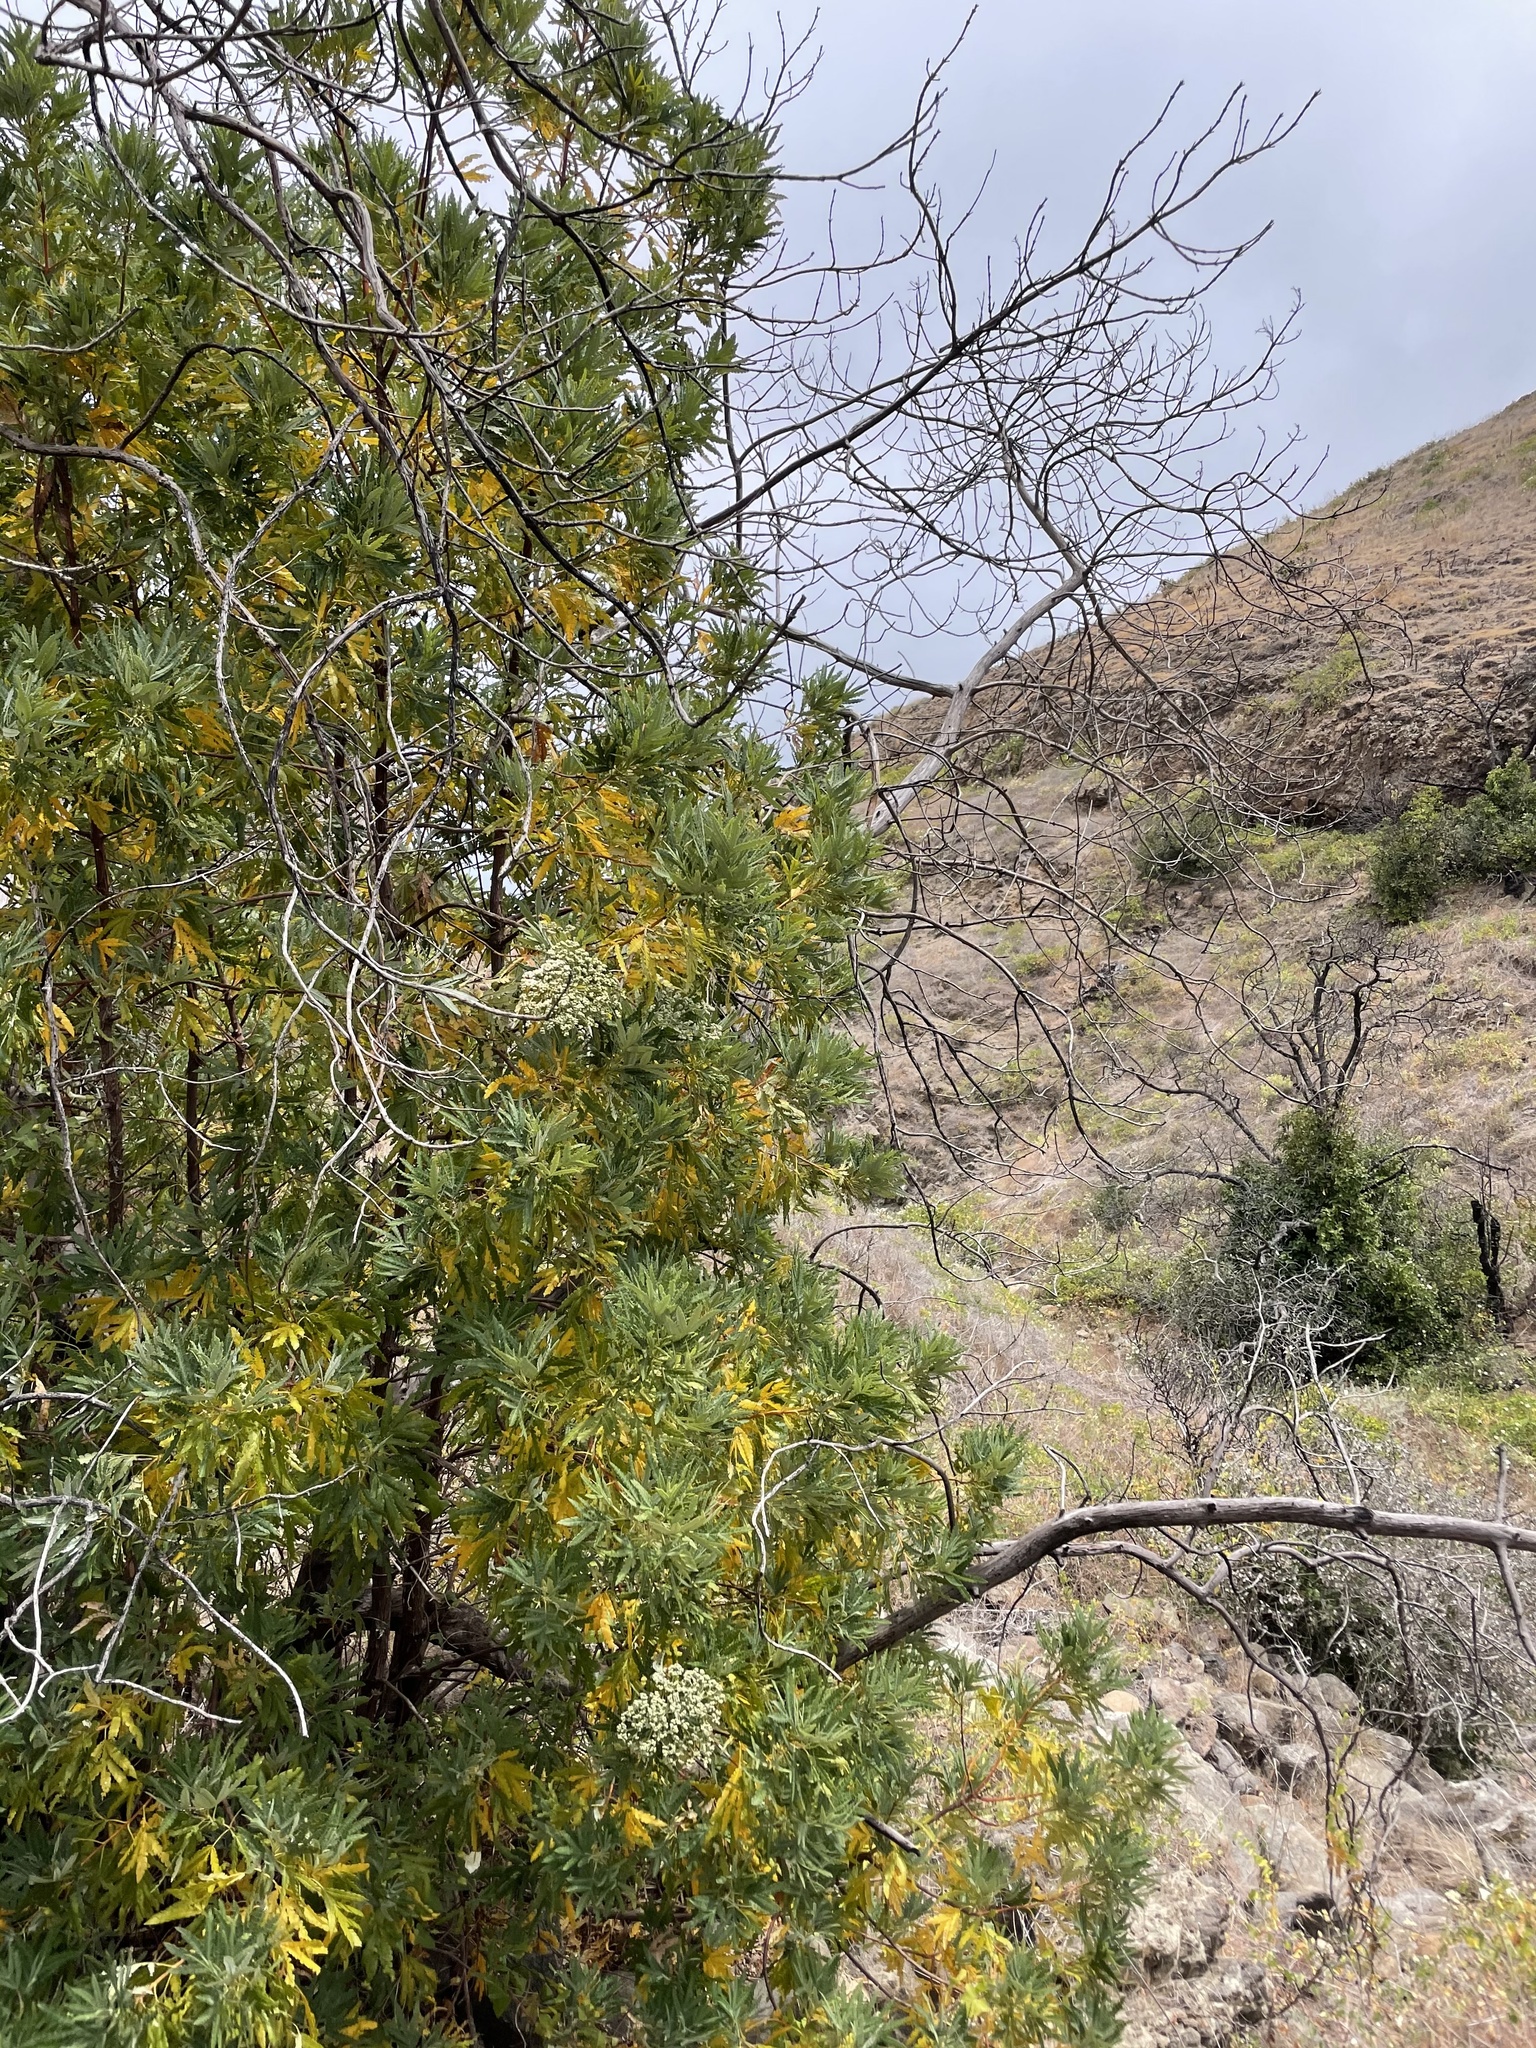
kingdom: Plantae
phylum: Tracheophyta
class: Magnoliopsida
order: Rosales
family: Rosaceae
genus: Lyonothamnus
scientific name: Lyonothamnus floribundus
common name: Catalina ironwood
